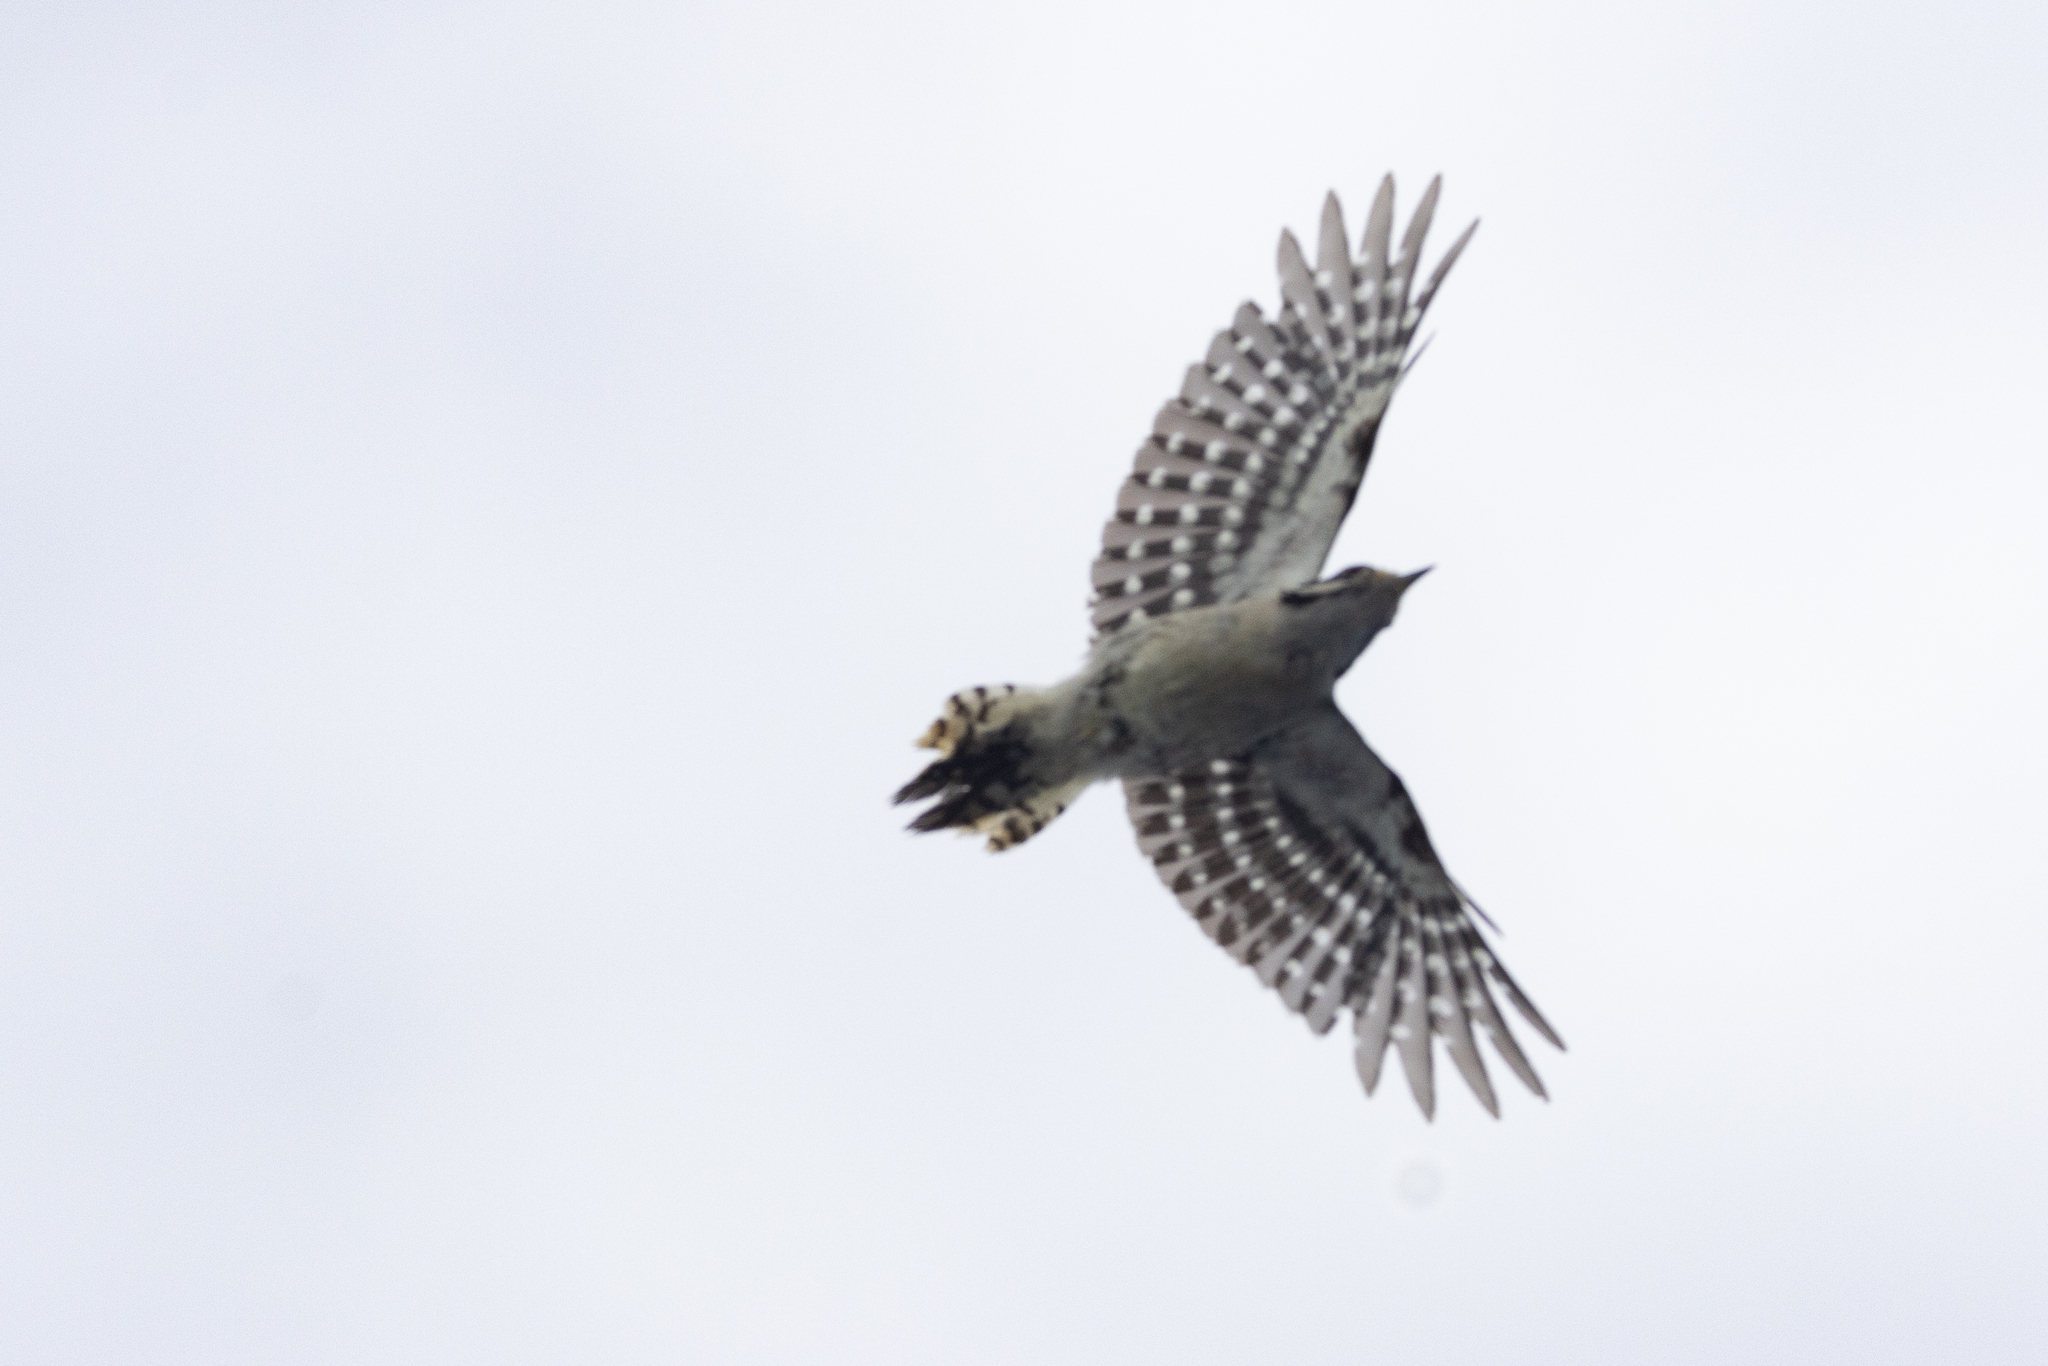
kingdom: Animalia
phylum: Chordata
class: Aves
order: Piciformes
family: Picidae
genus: Dryobates
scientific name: Dryobates pubescens
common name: Downy woodpecker
